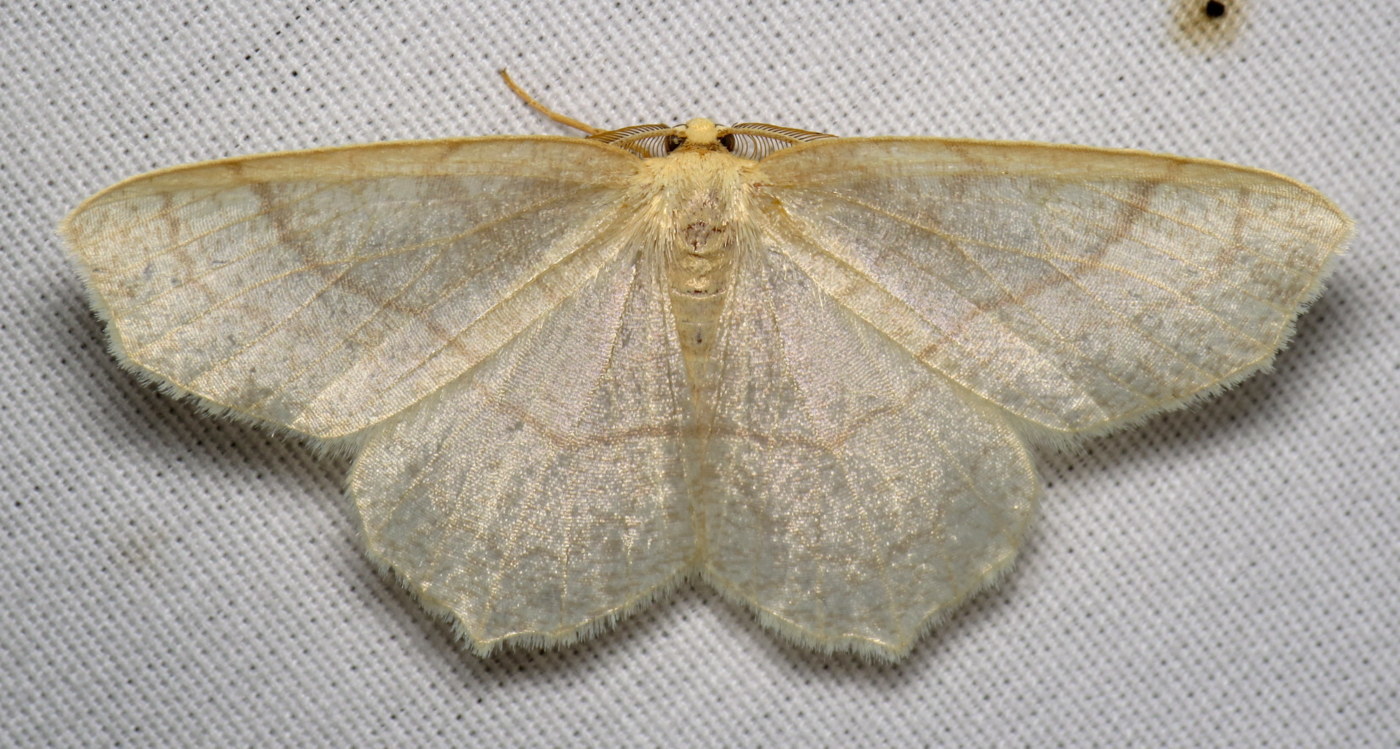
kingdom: Animalia
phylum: Arthropoda
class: Insecta
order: Lepidoptera
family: Geometridae
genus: Besma
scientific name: Besma endropiaria
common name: Straw besma
